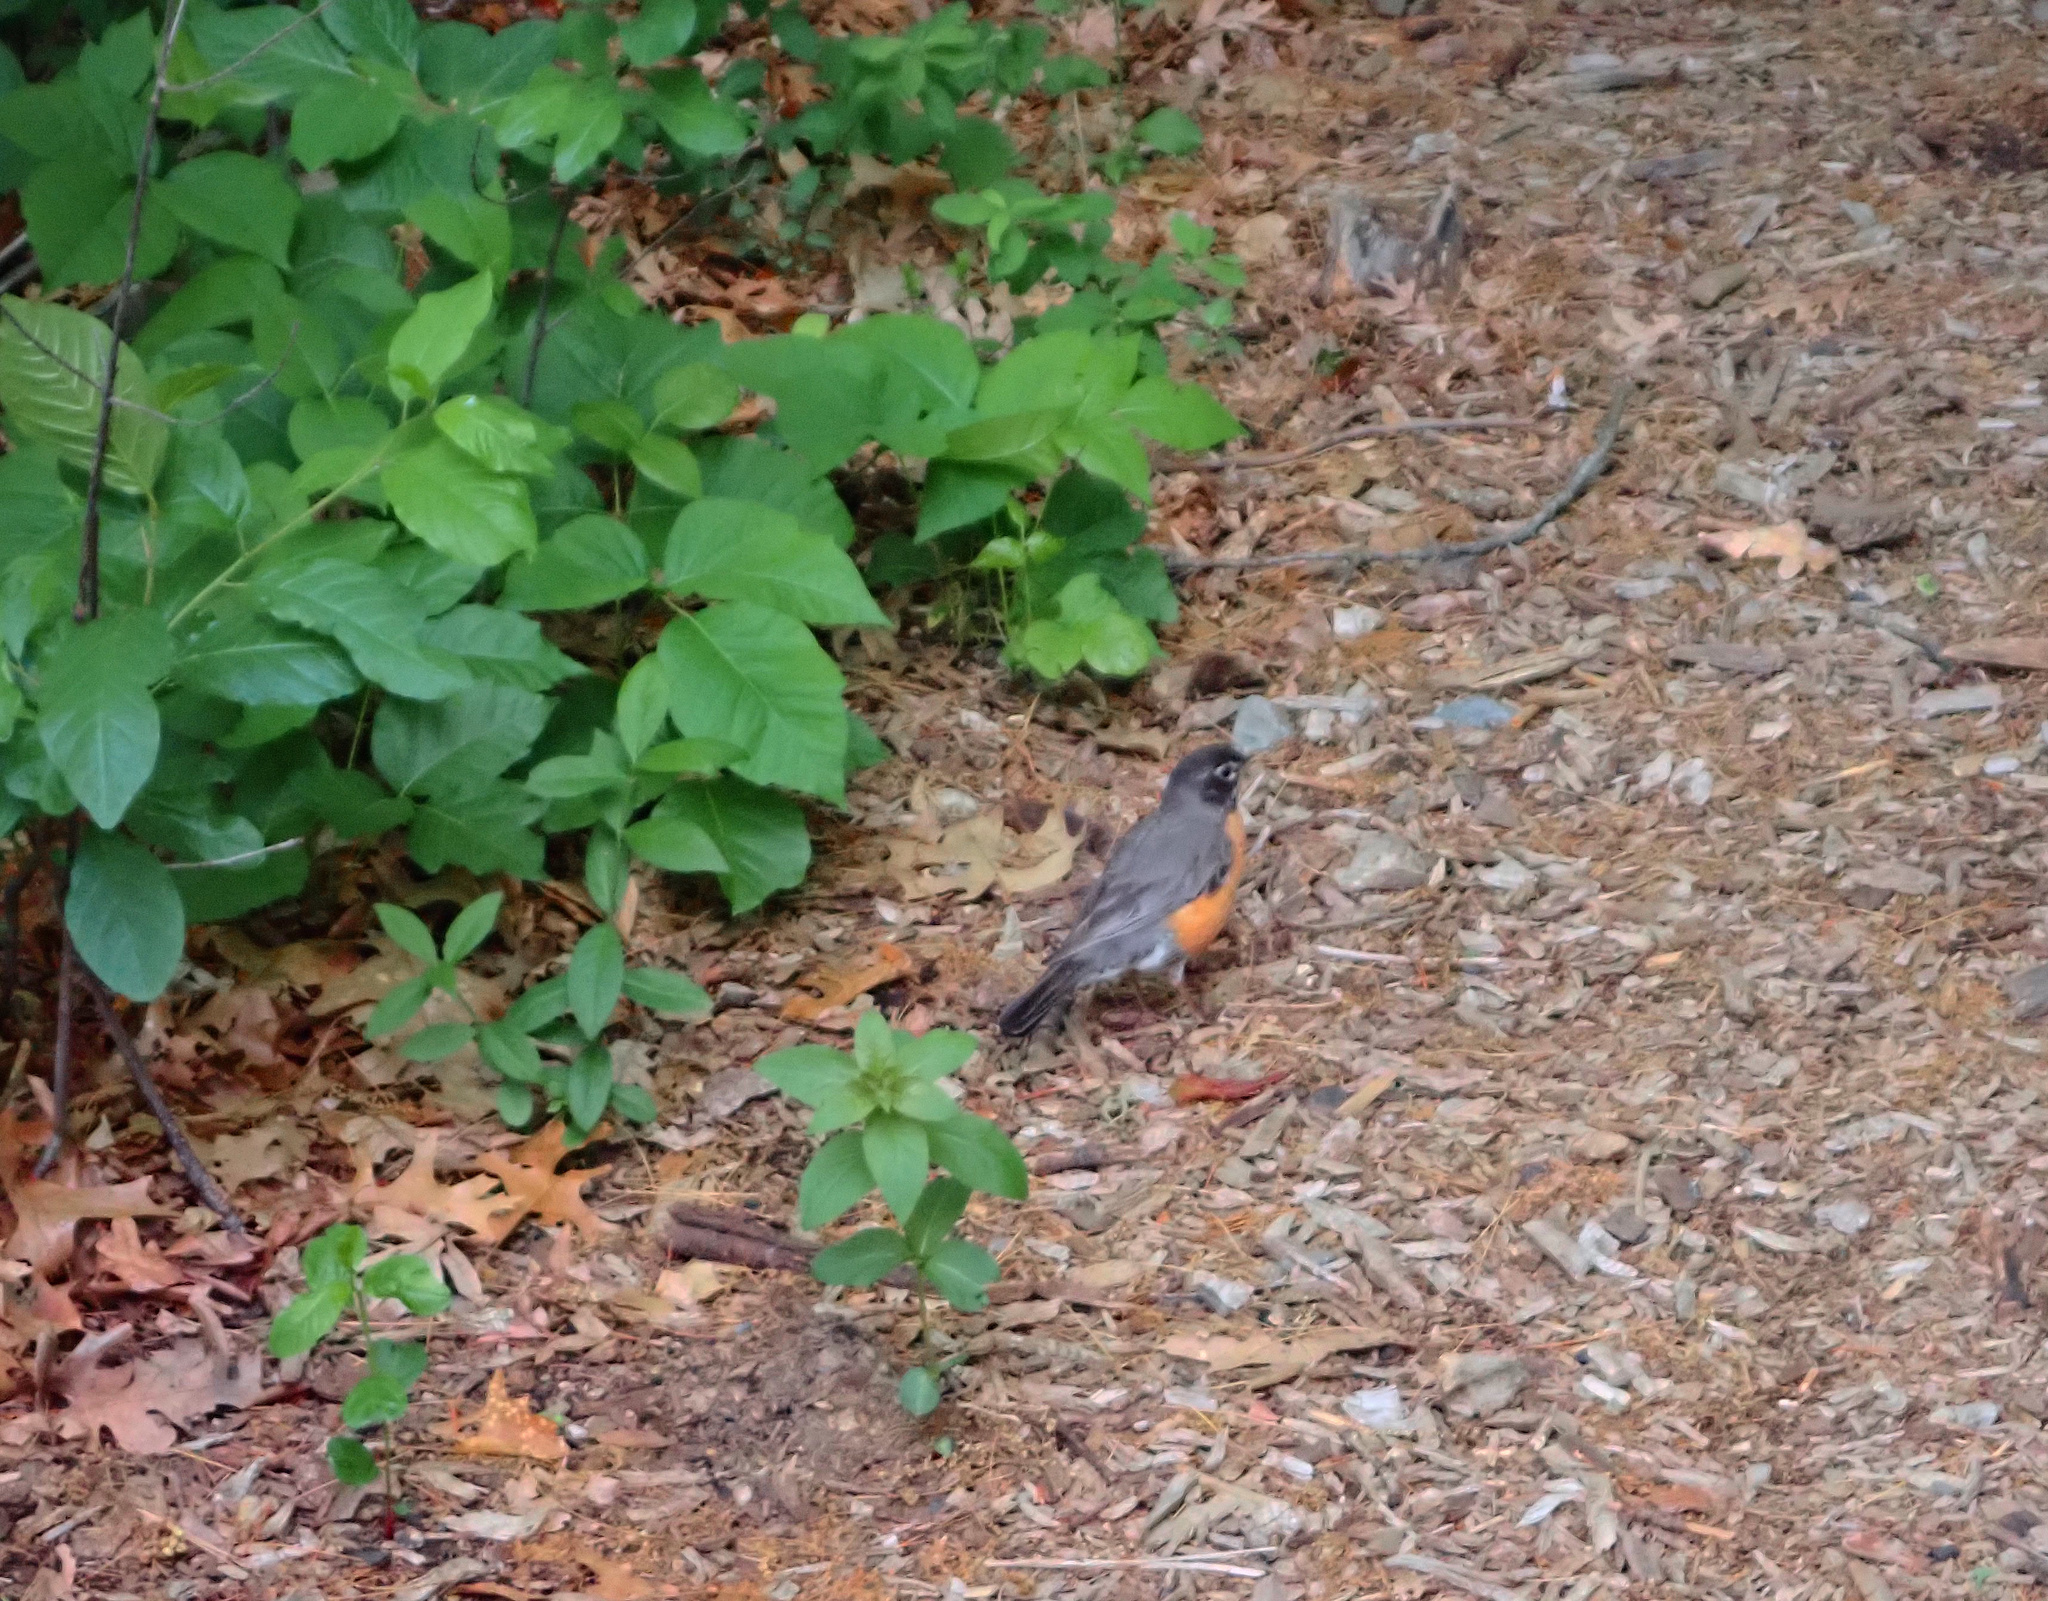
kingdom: Animalia
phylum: Chordata
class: Aves
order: Passeriformes
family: Turdidae
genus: Turdus
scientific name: Turdus migratorius
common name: American robin
